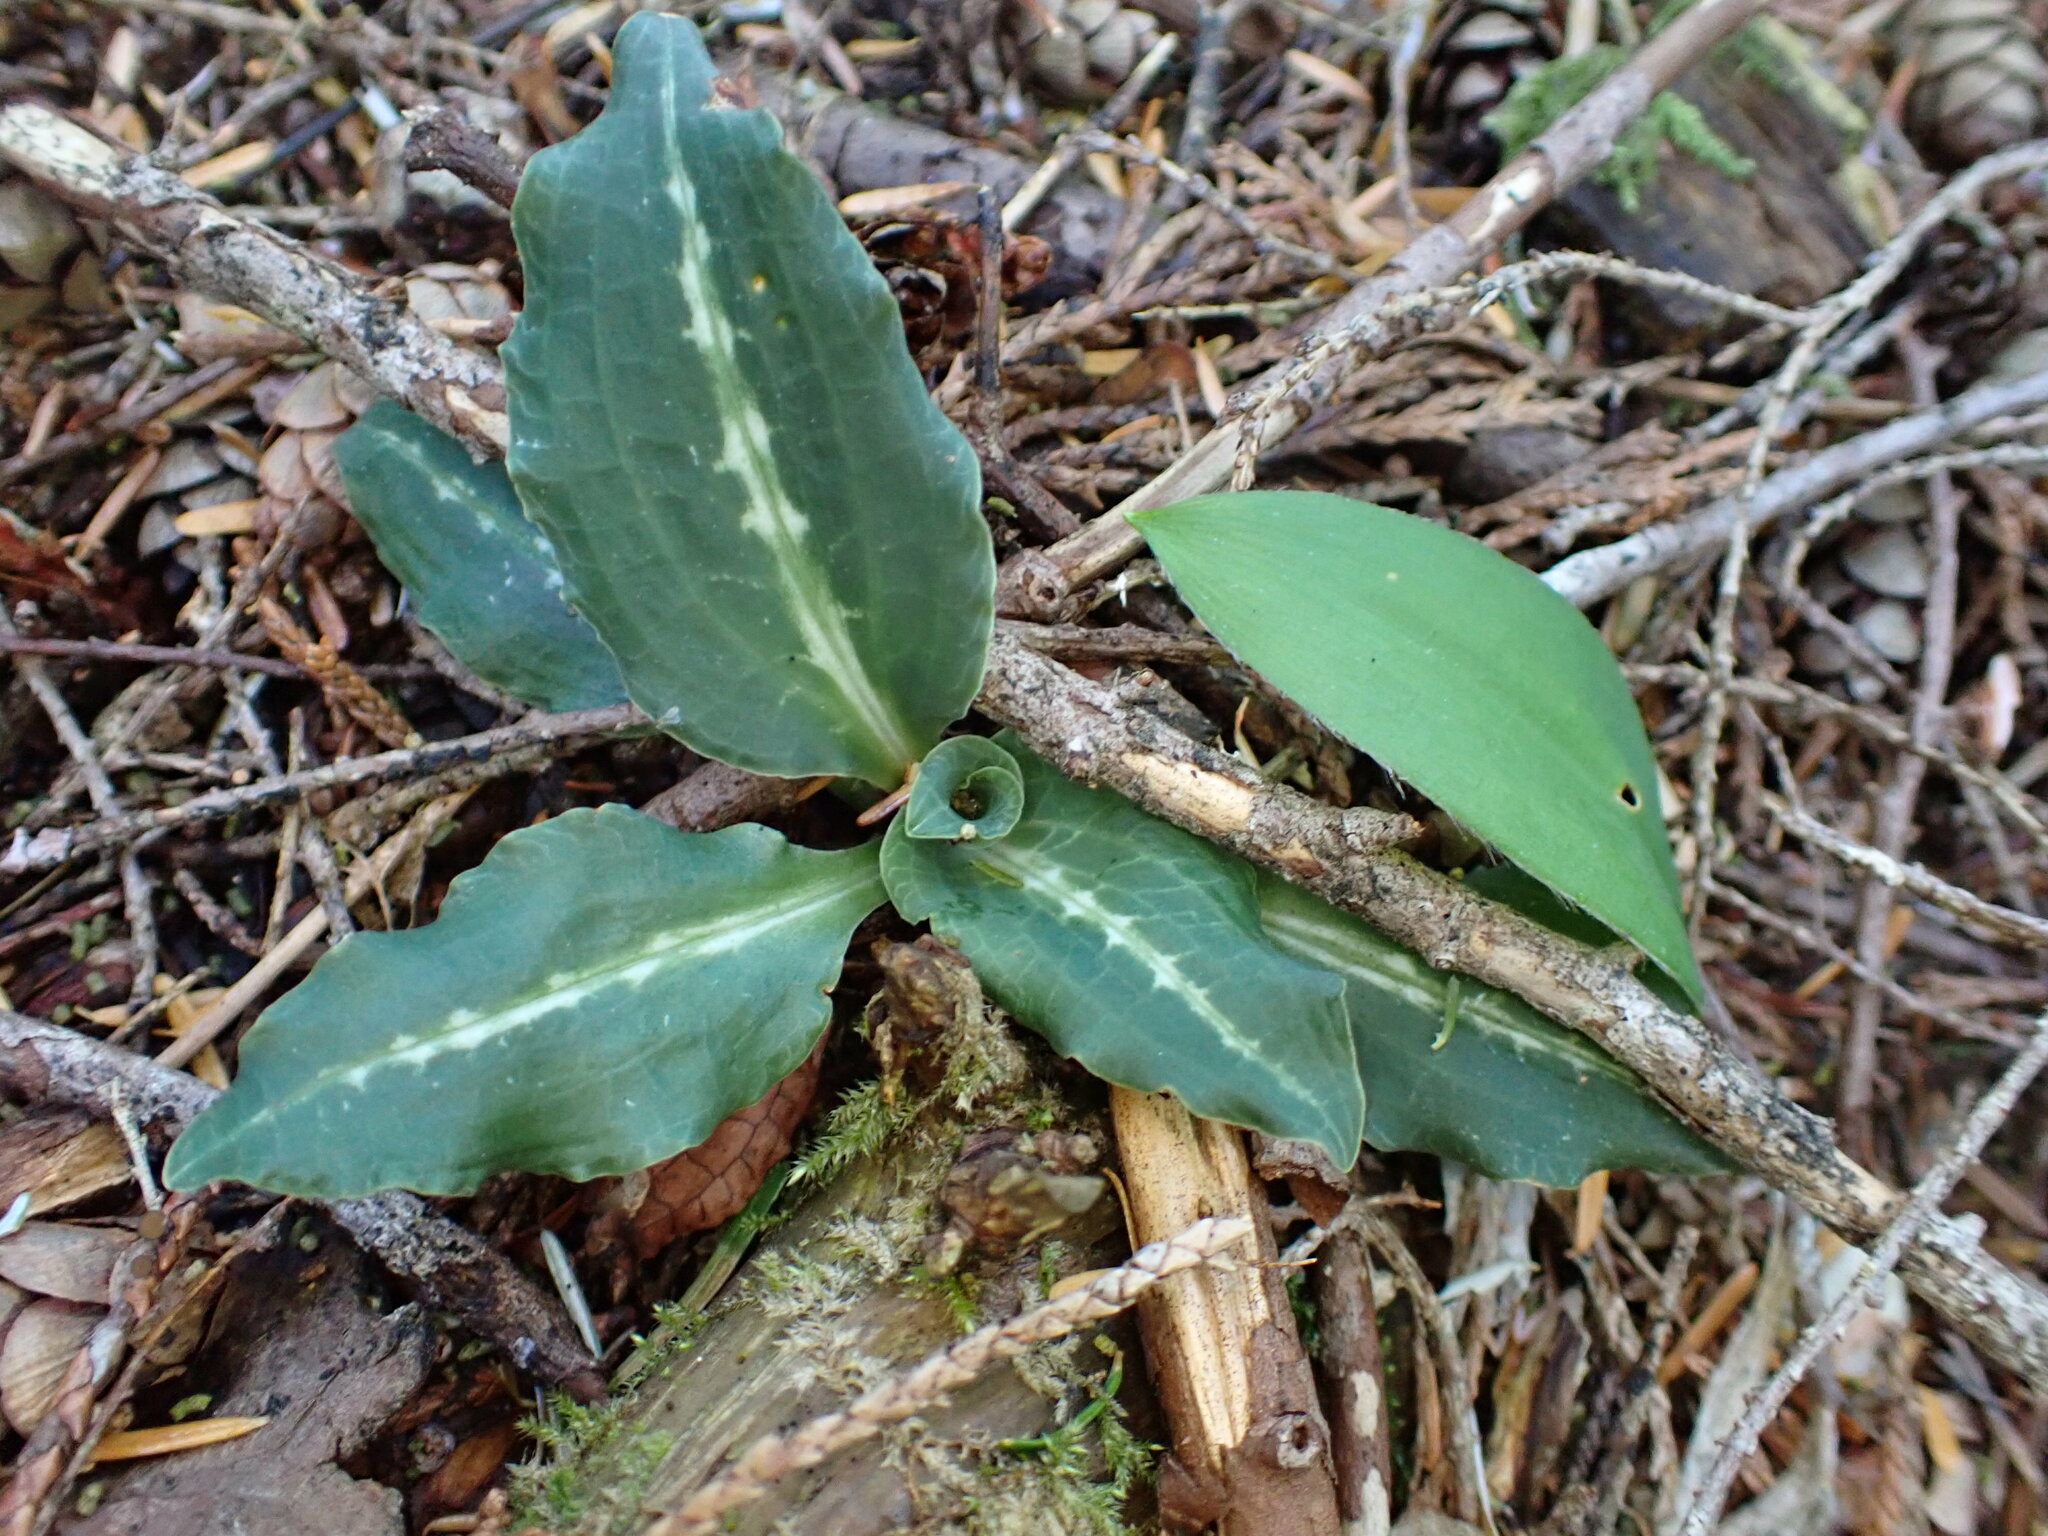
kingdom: Plantae
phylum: Tracheophyta
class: Liliopsida
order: Asparagales
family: Orchidaceae
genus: Goodyera
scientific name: Goodyera oblongifolia
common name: Giant rattlesnake-plantain
